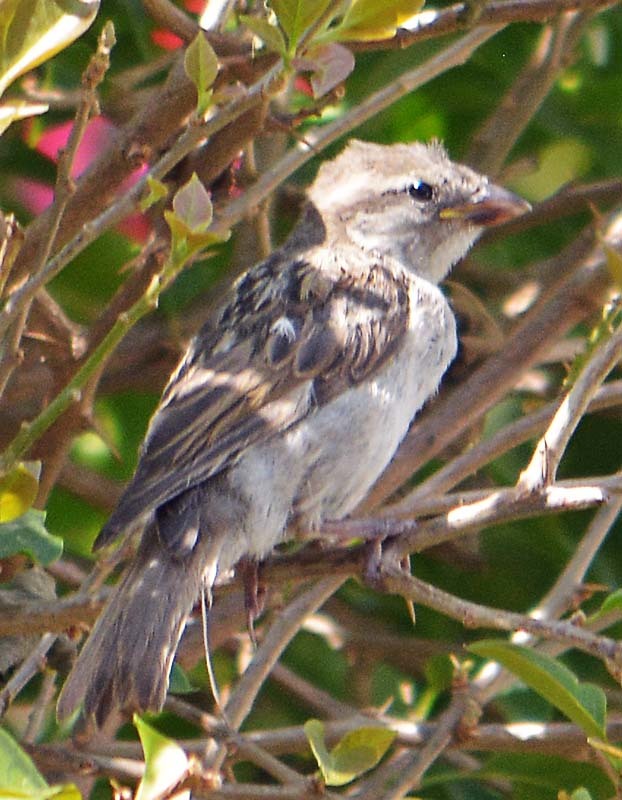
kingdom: Animalia
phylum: Chordata
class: Aves
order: Passeriformes
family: Passeridae
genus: Passer
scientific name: Passer domesticus
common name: House sparrow
